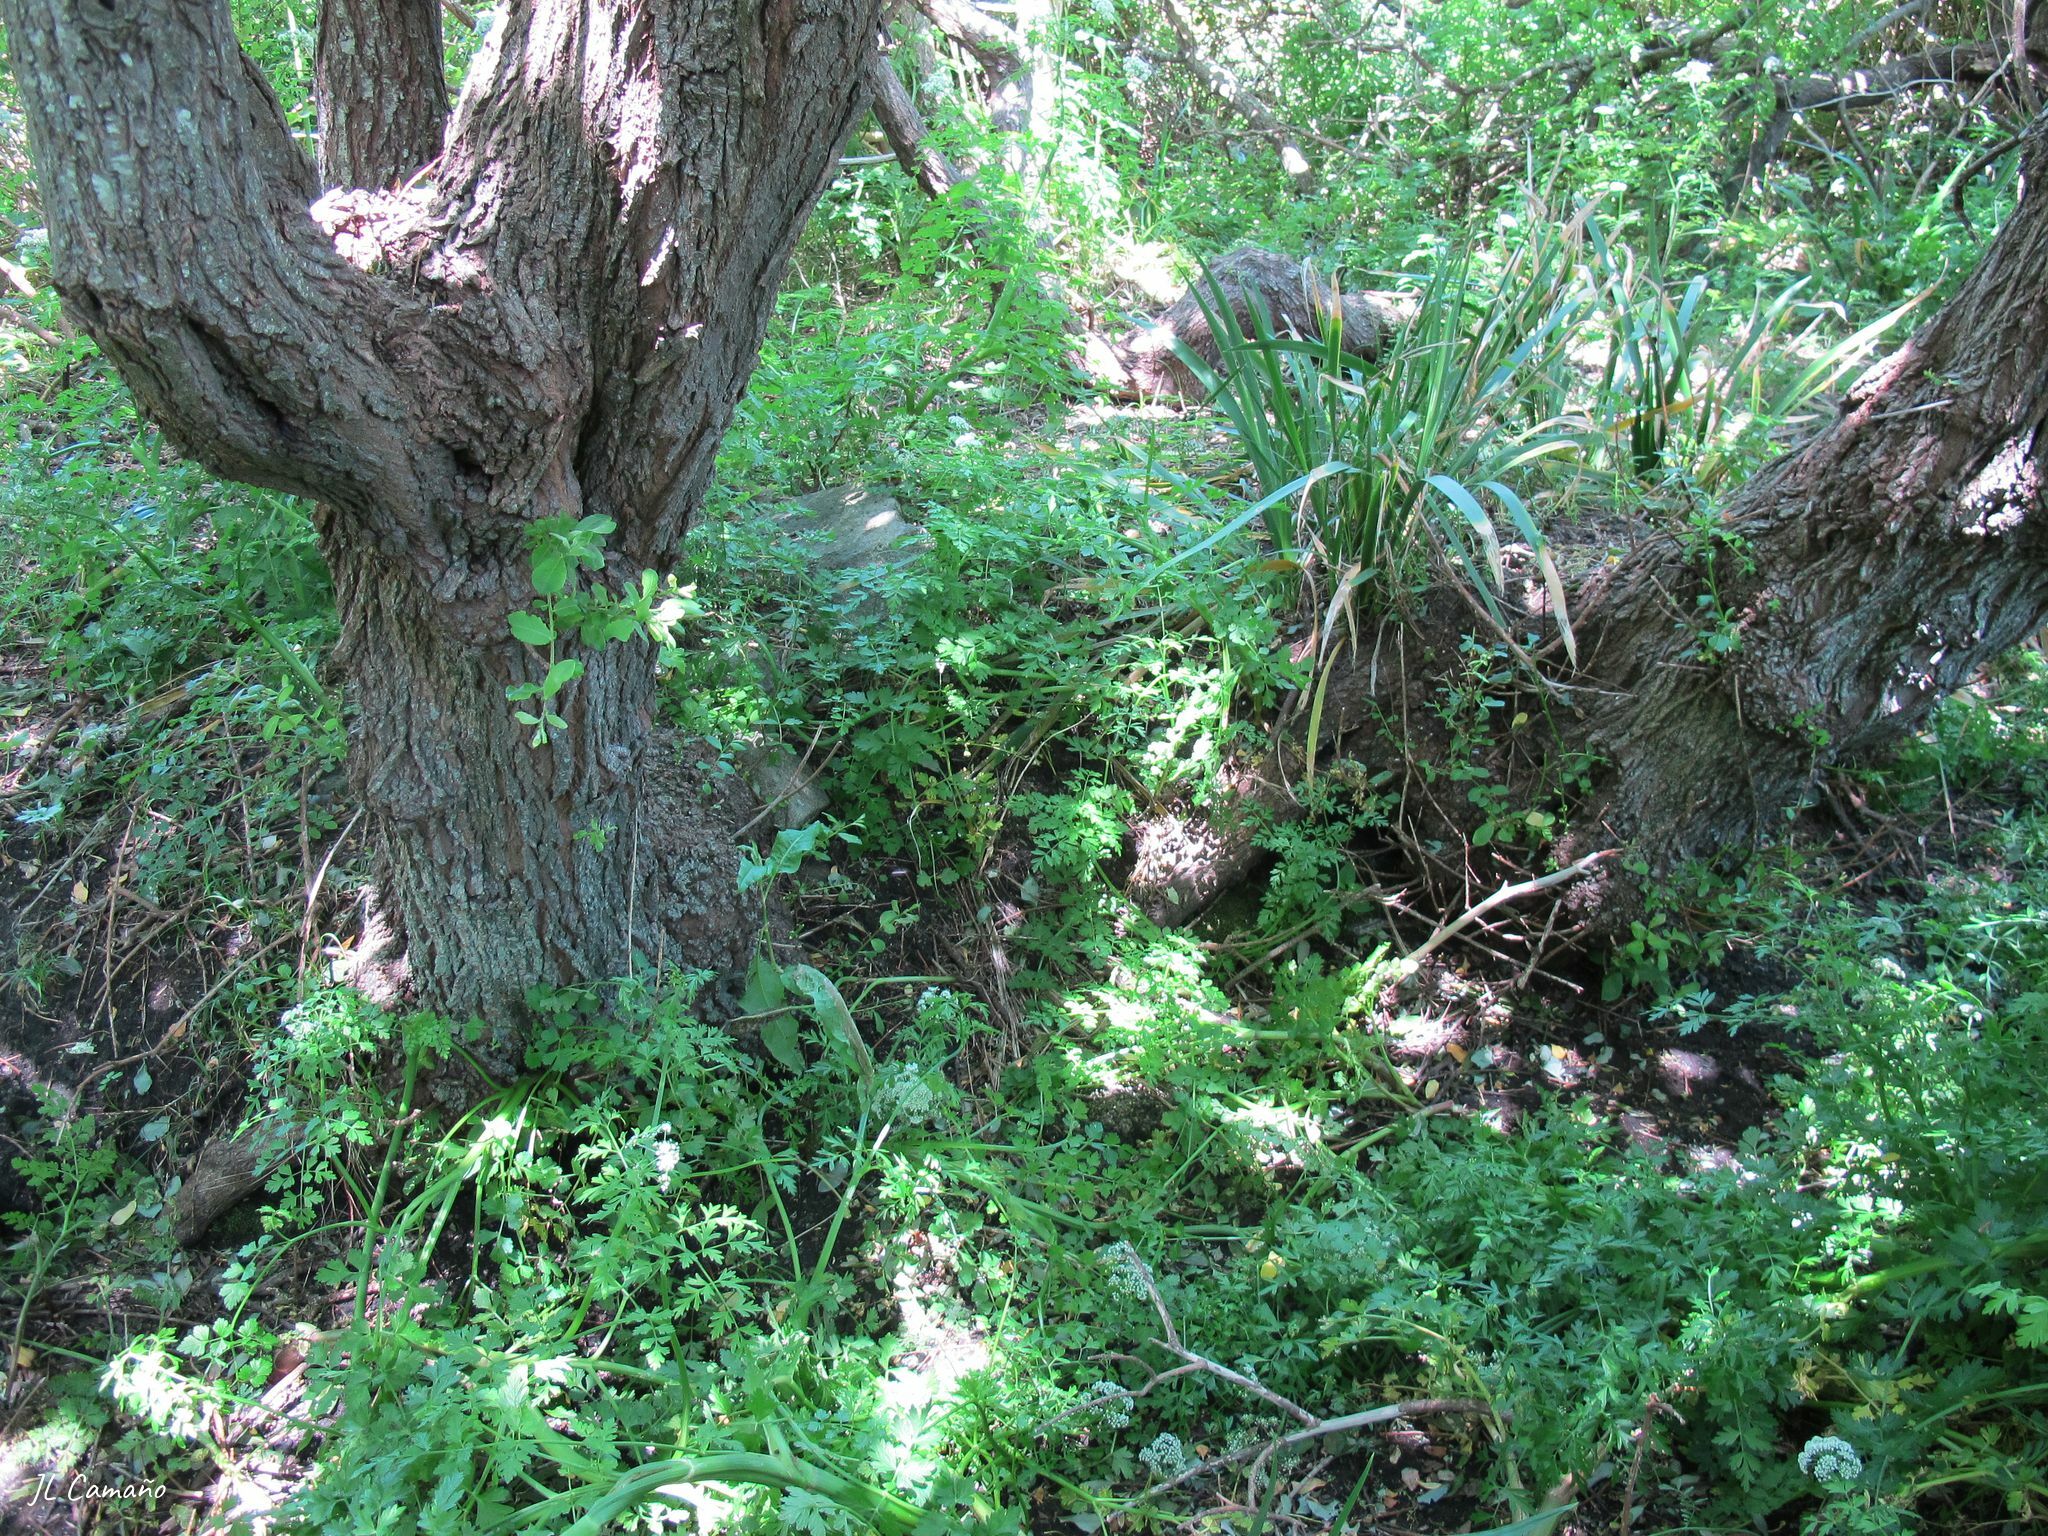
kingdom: Plantae
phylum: Marchantiophyta
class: Marchantiopsida
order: Lunulariales
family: Lunulariaceae
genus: Lunularia
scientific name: Lunularia cruciata
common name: Crescent-cup liverwort
